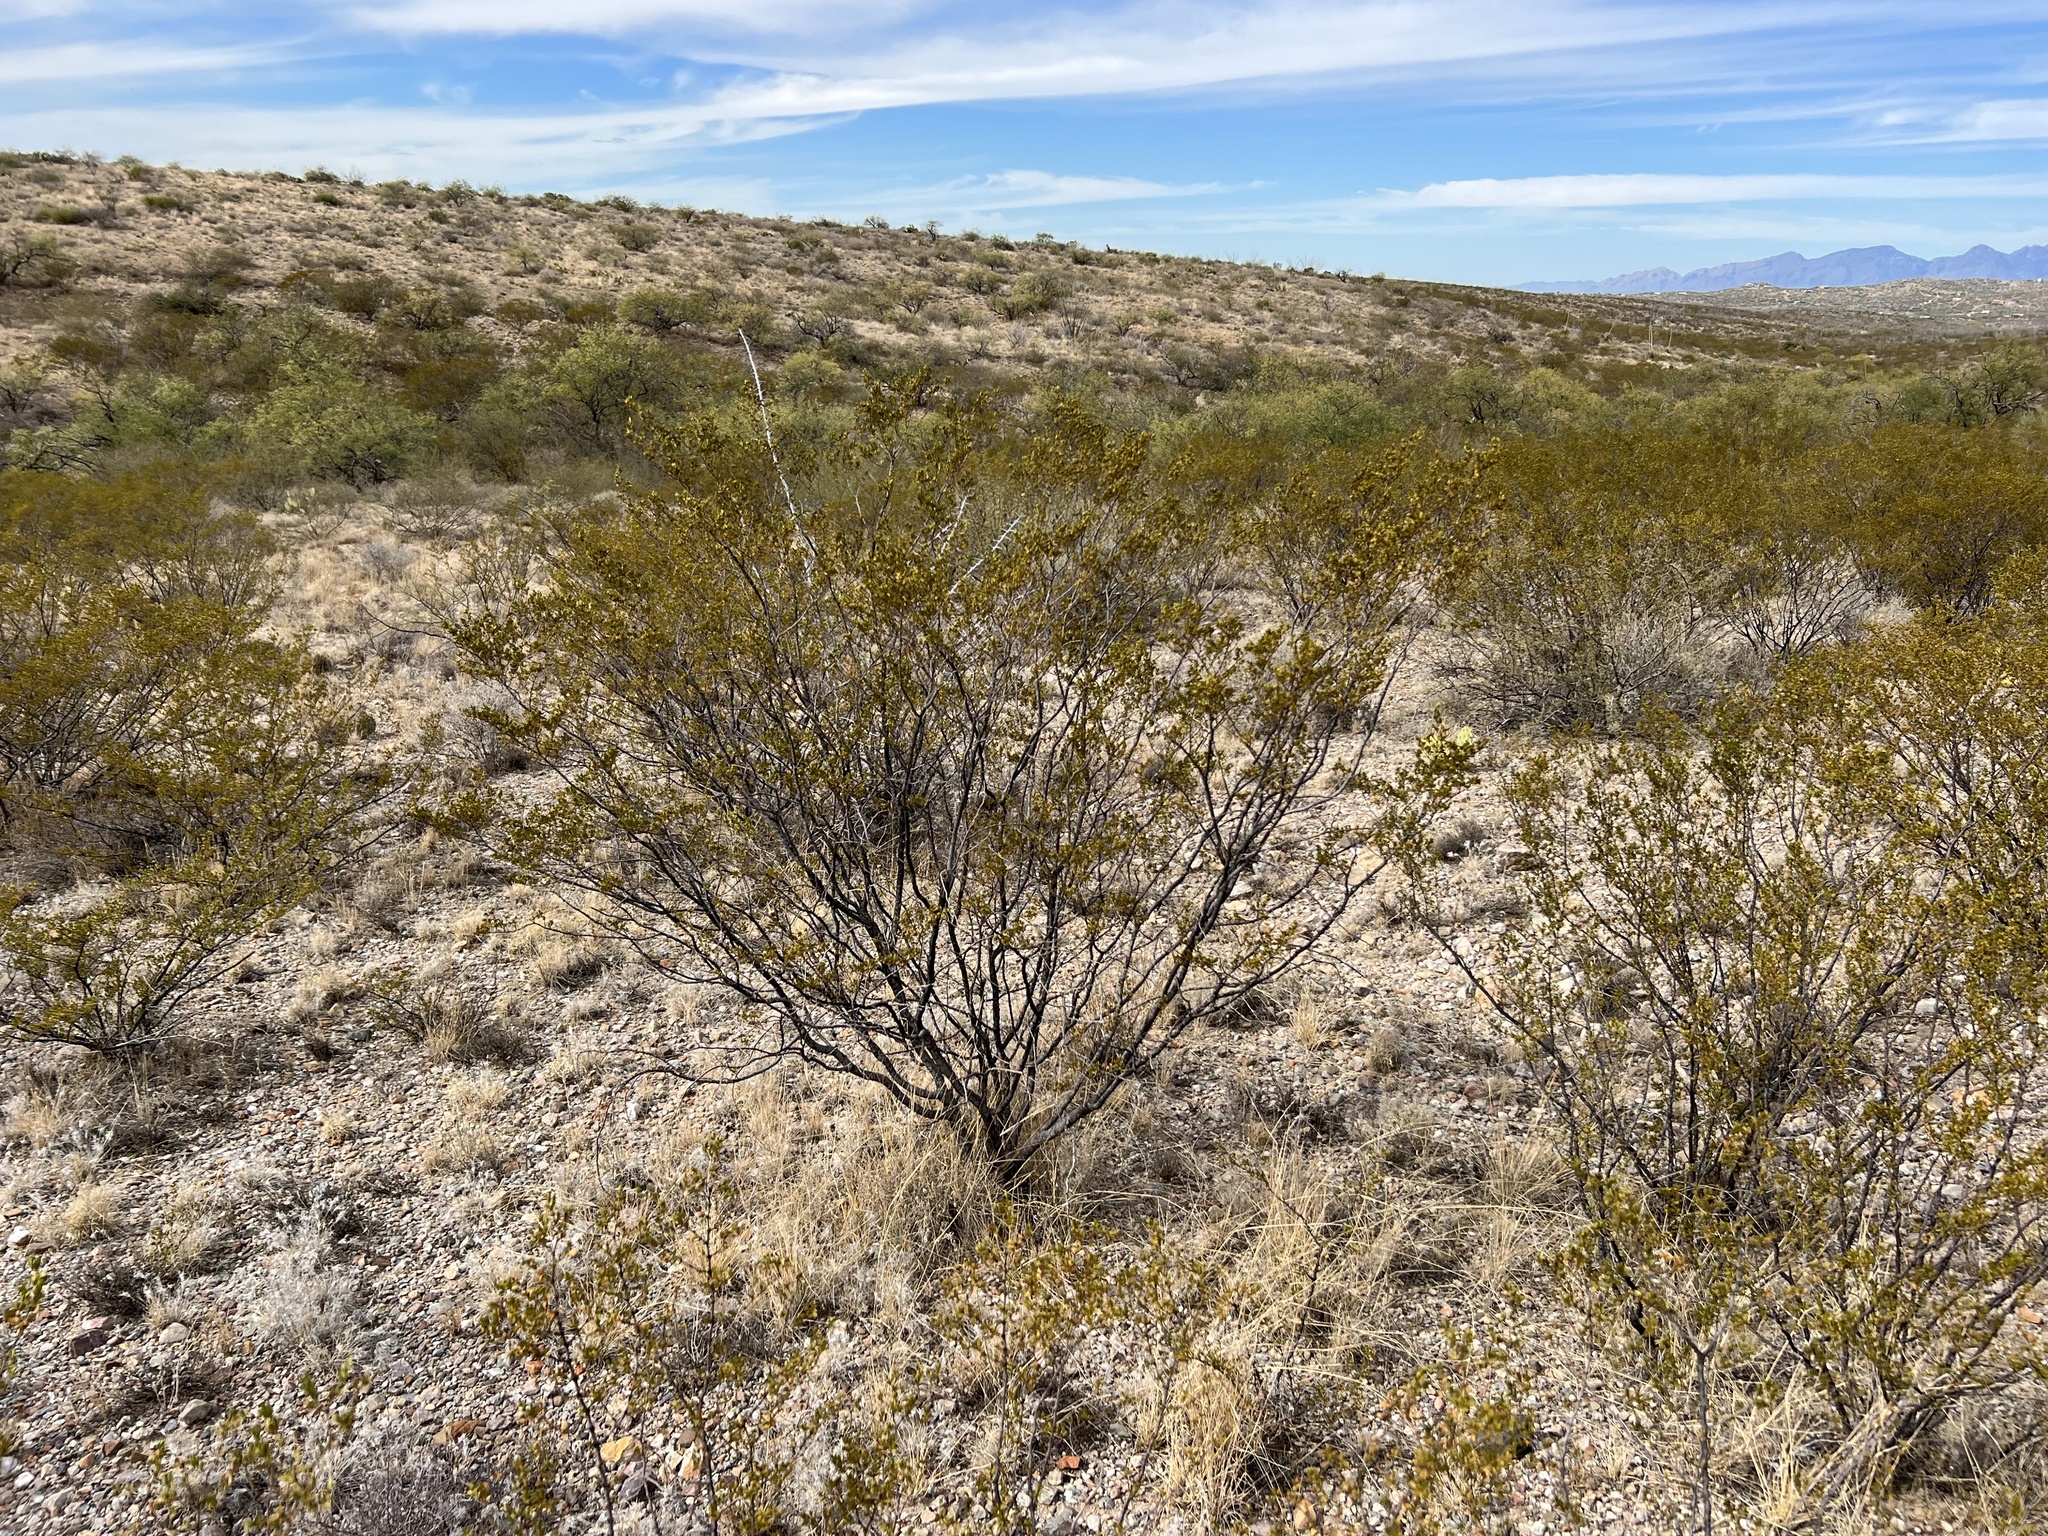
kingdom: Plantae
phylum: Tracheophyta
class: Magnoliopsida
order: Zygophyllales
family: Zygophyllaceae
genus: Larrea
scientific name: Larrea tridentata
